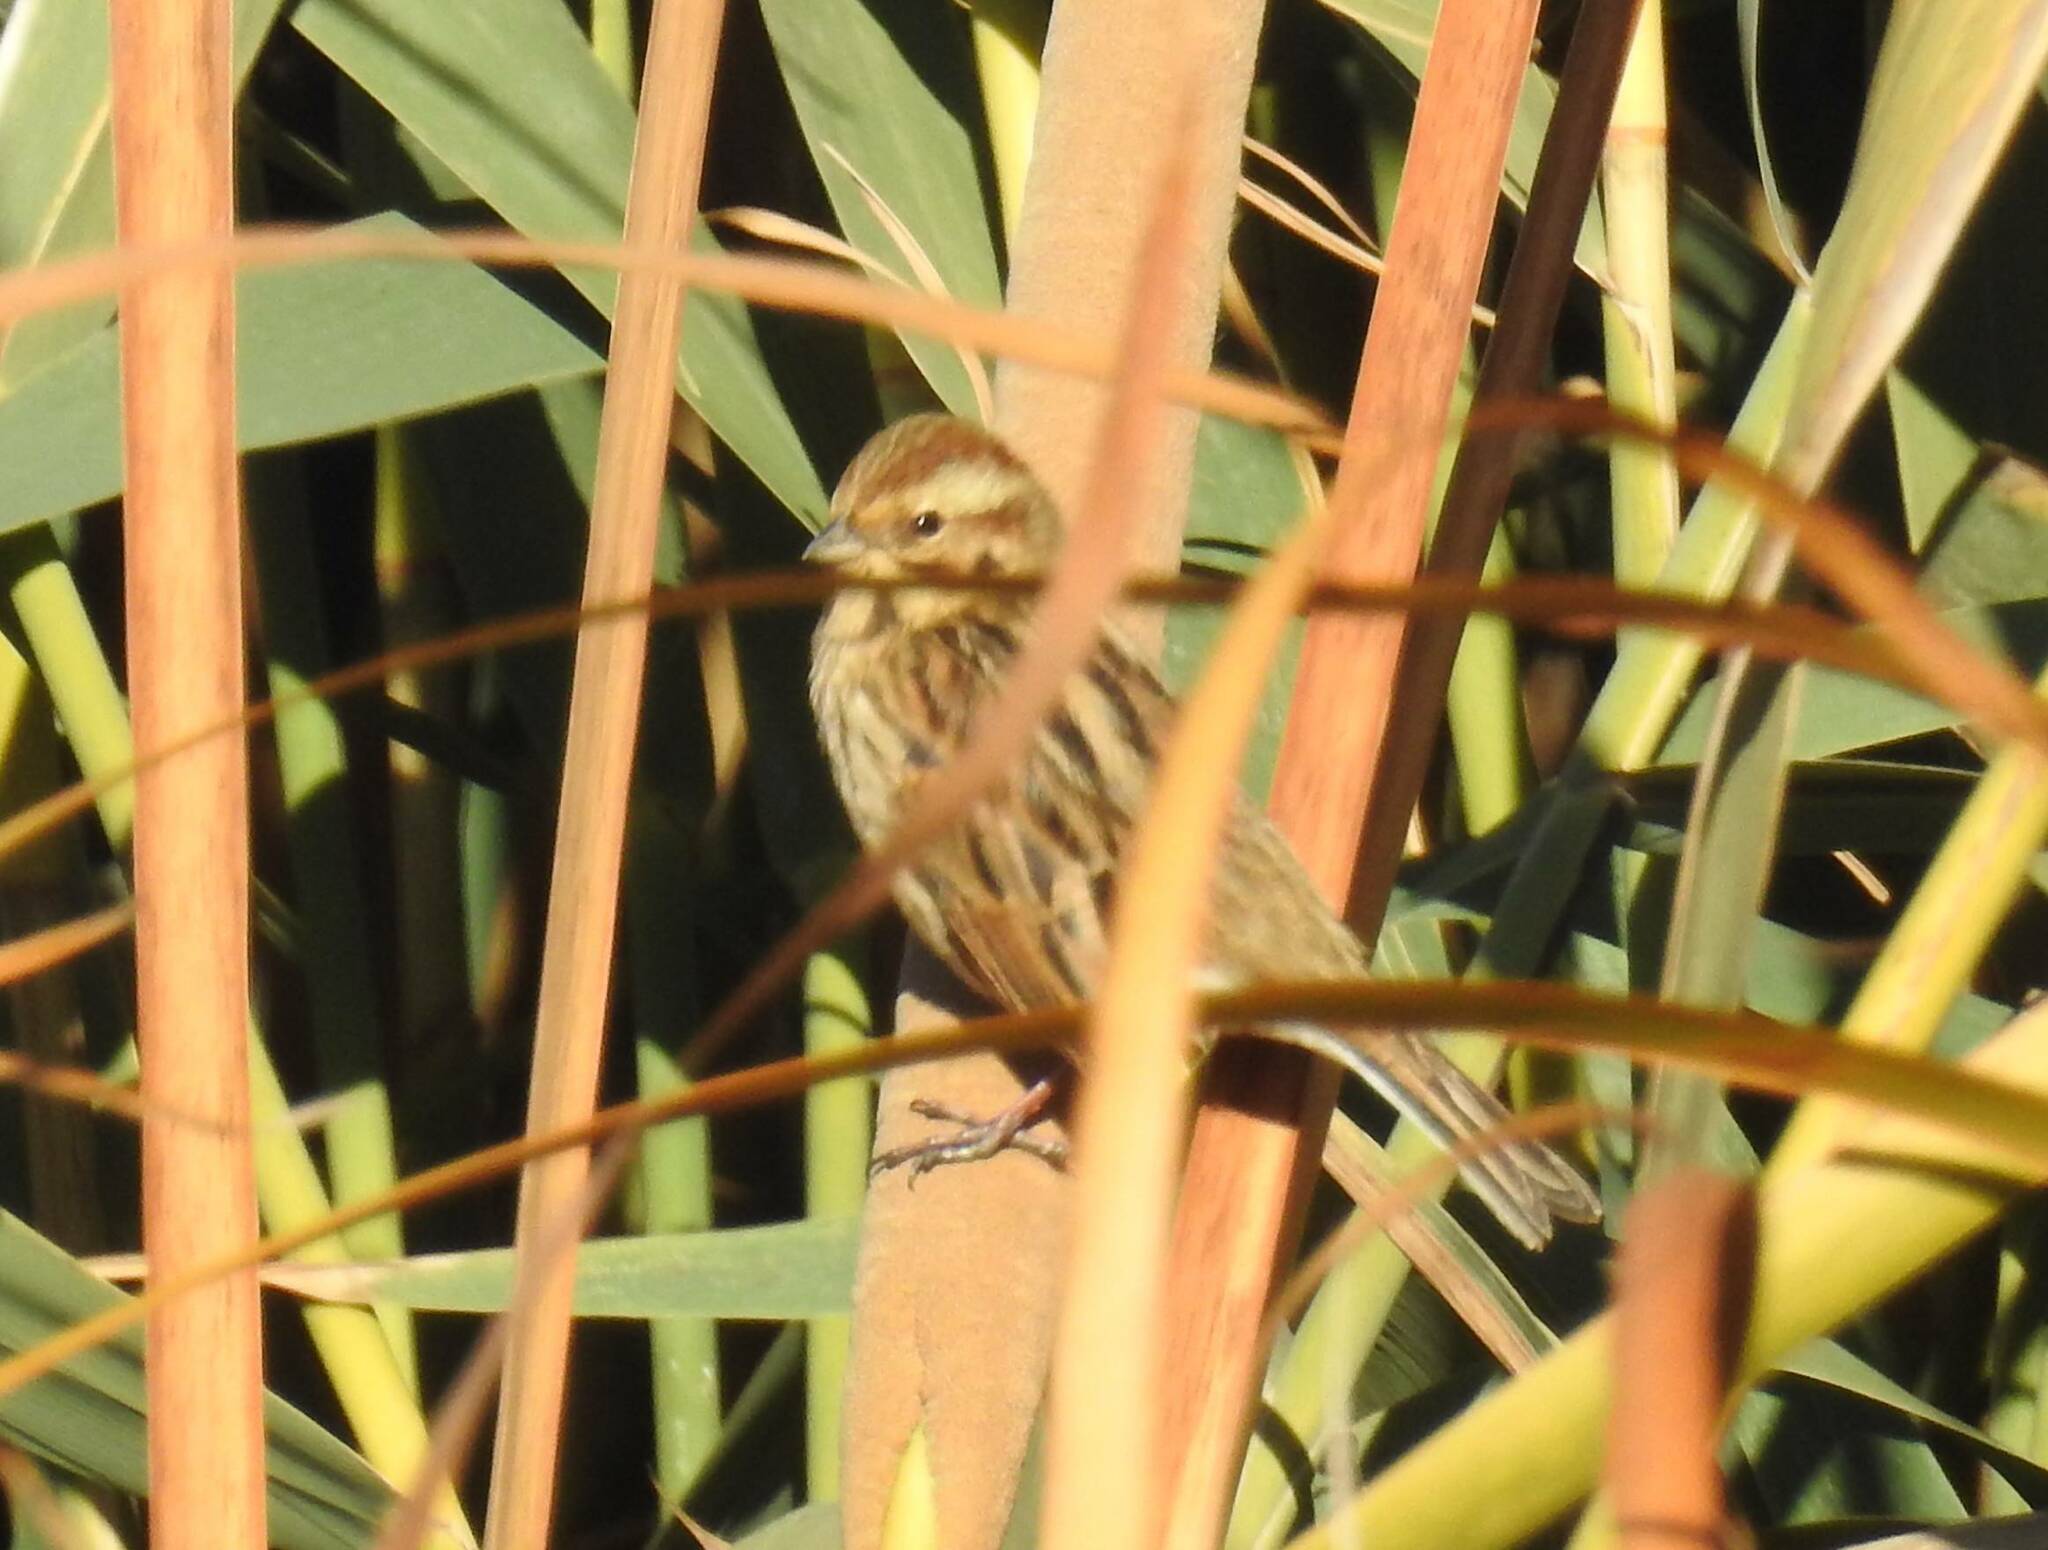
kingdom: Animalia
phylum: Chordata
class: Aves
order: Passeriformes
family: Emberizidae
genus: Emberiza
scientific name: Emberiza schoeniclus
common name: Reed bunting
